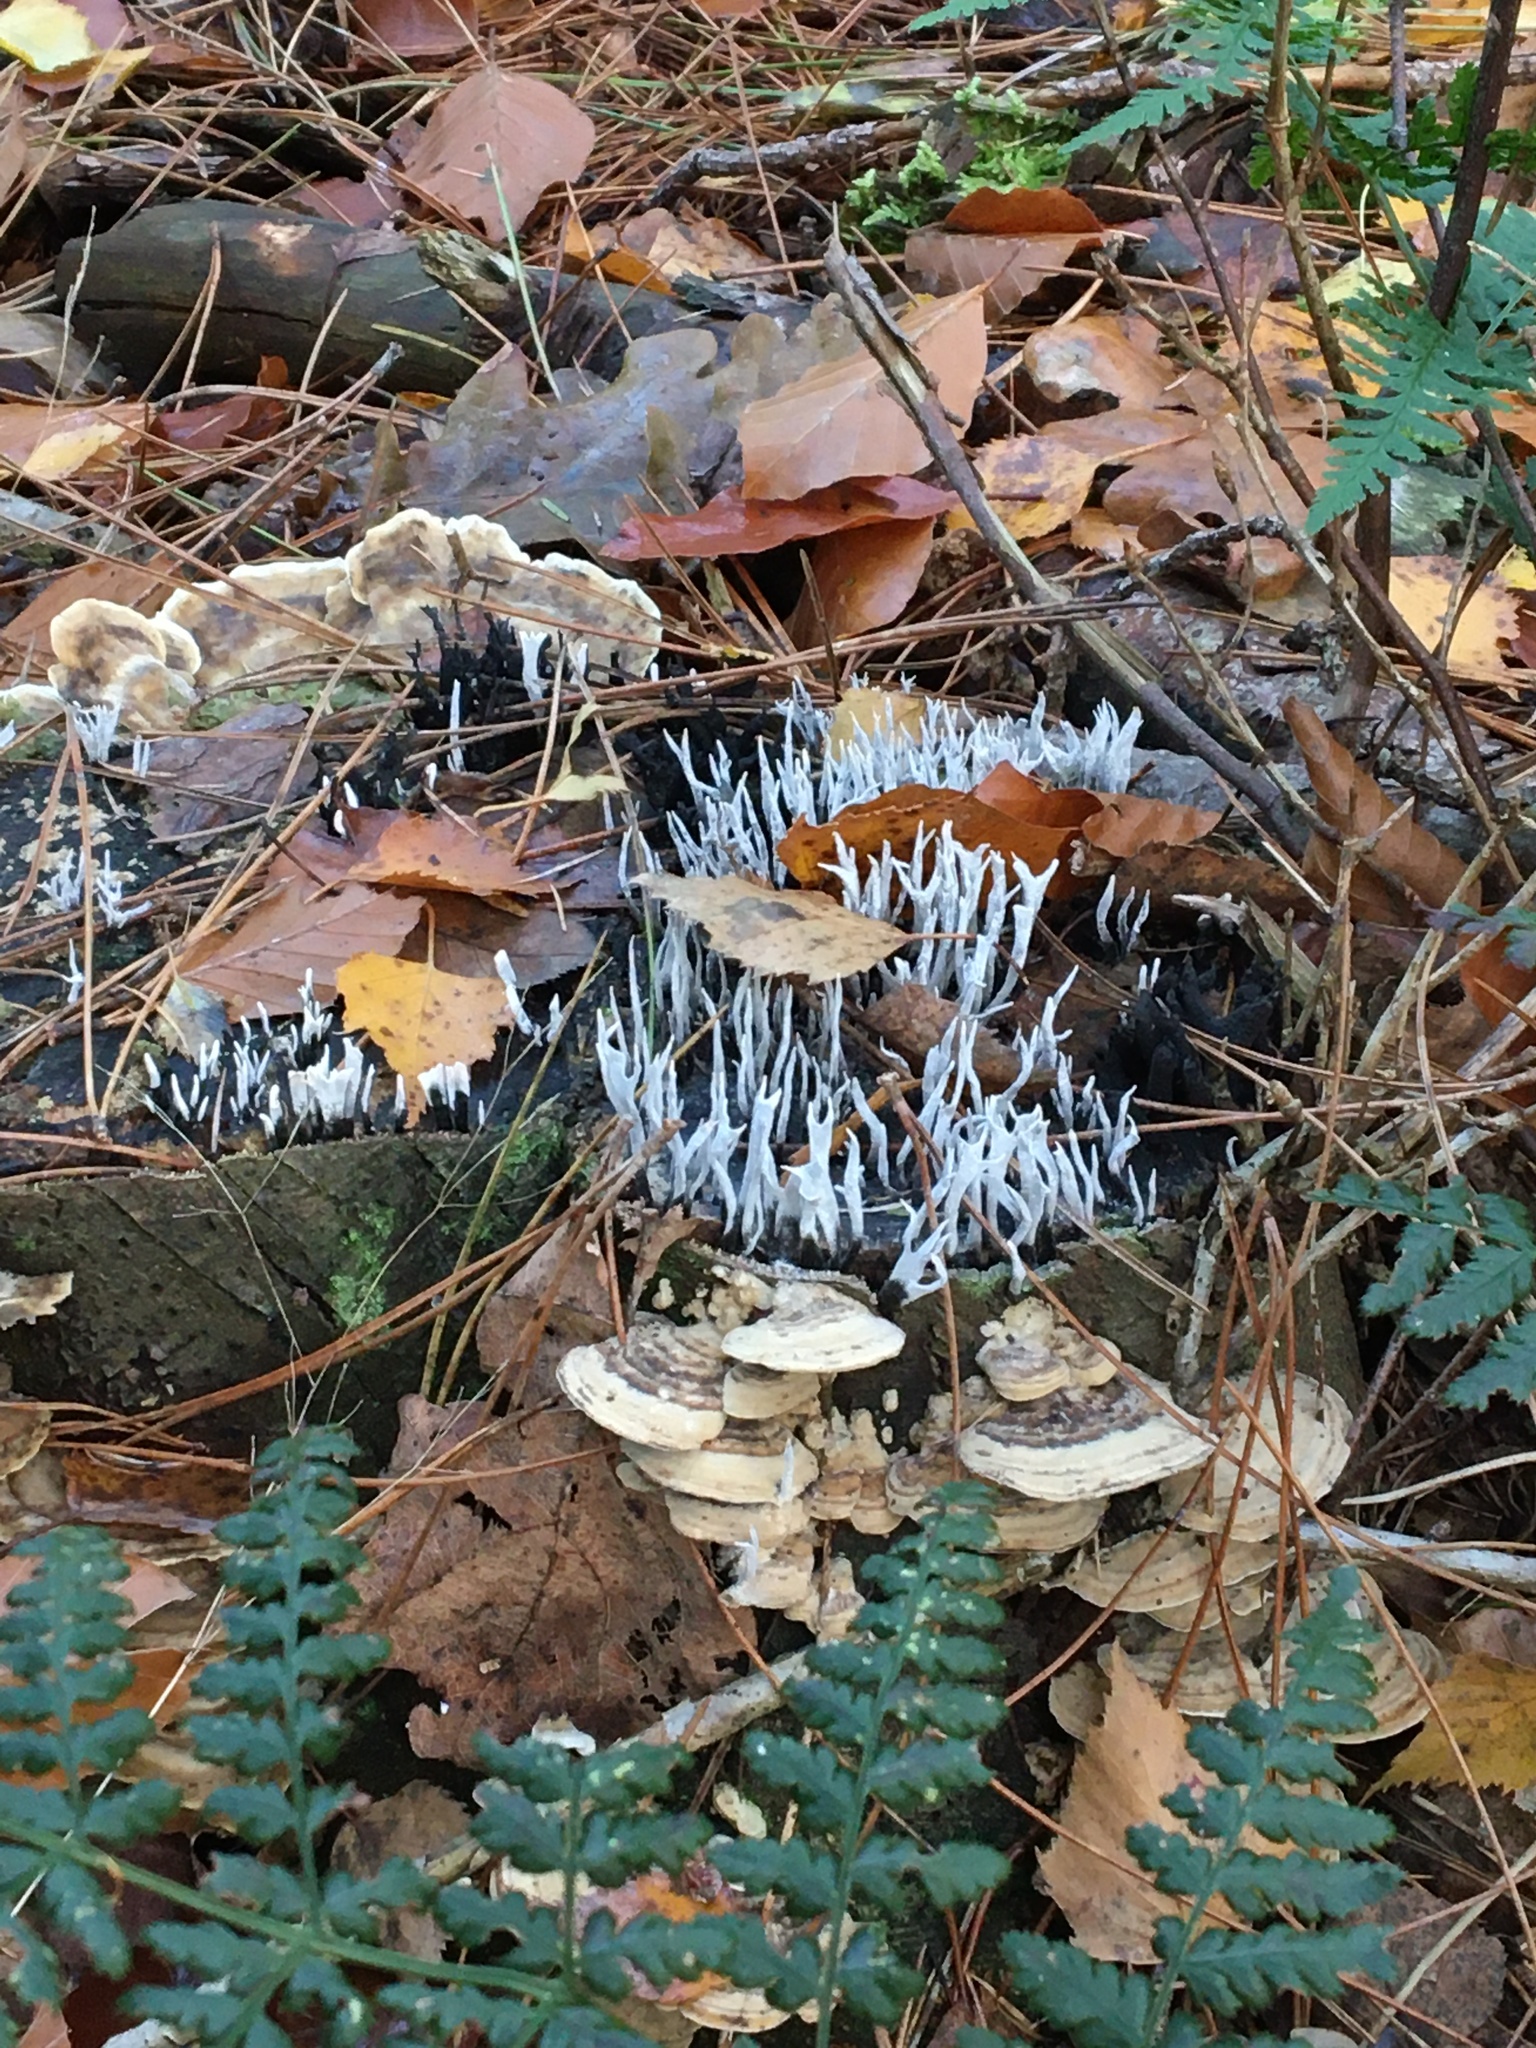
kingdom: Fungi
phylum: Ascomycota
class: Sordariomycetes
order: Xylariales
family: Xylariaceae
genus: Xylaria
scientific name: Xylaria hypoxylon
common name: Candle-snuff fungus
